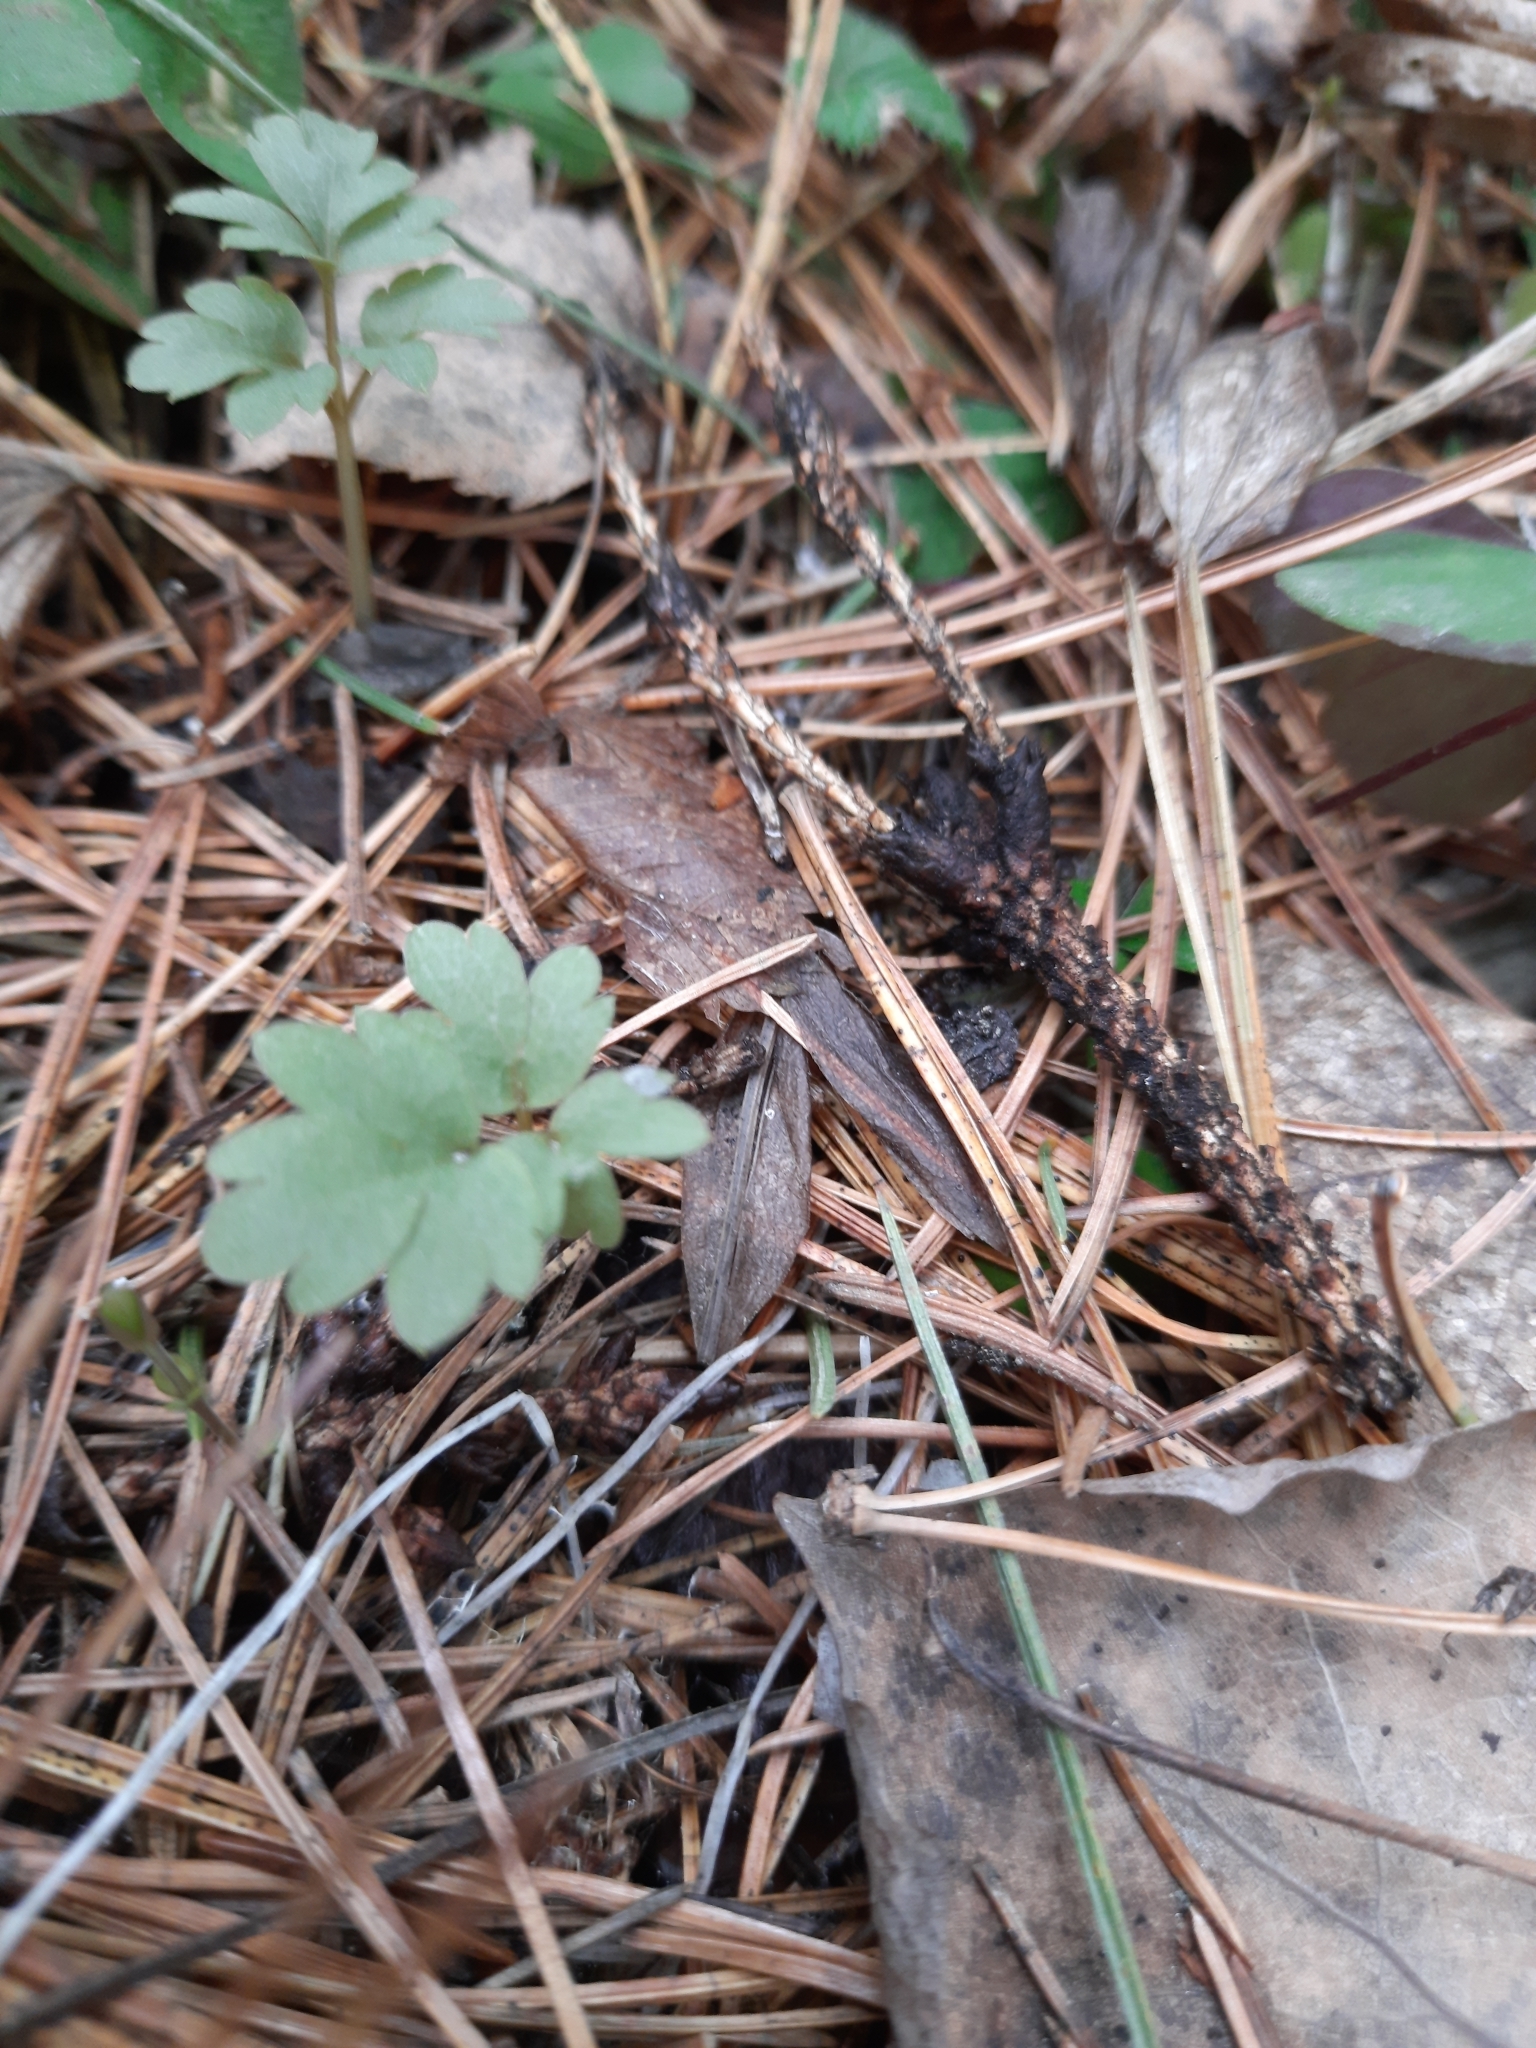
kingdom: Plantae
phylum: Tracheophyta
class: Magnoliopsida
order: Dipsacales
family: Viburnaceae
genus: Adoxa
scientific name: Adoxa moschatellina
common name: Moschatel
